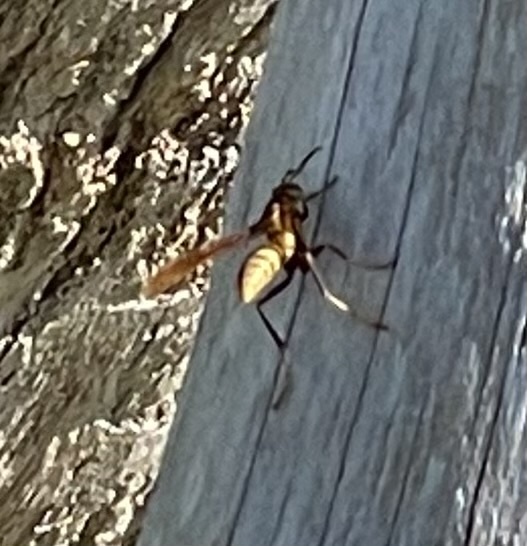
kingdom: Animalia
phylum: Arthropoda
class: Insecta
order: Hymenoptera
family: Eumenidae
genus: Polistes
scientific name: Polistes major
